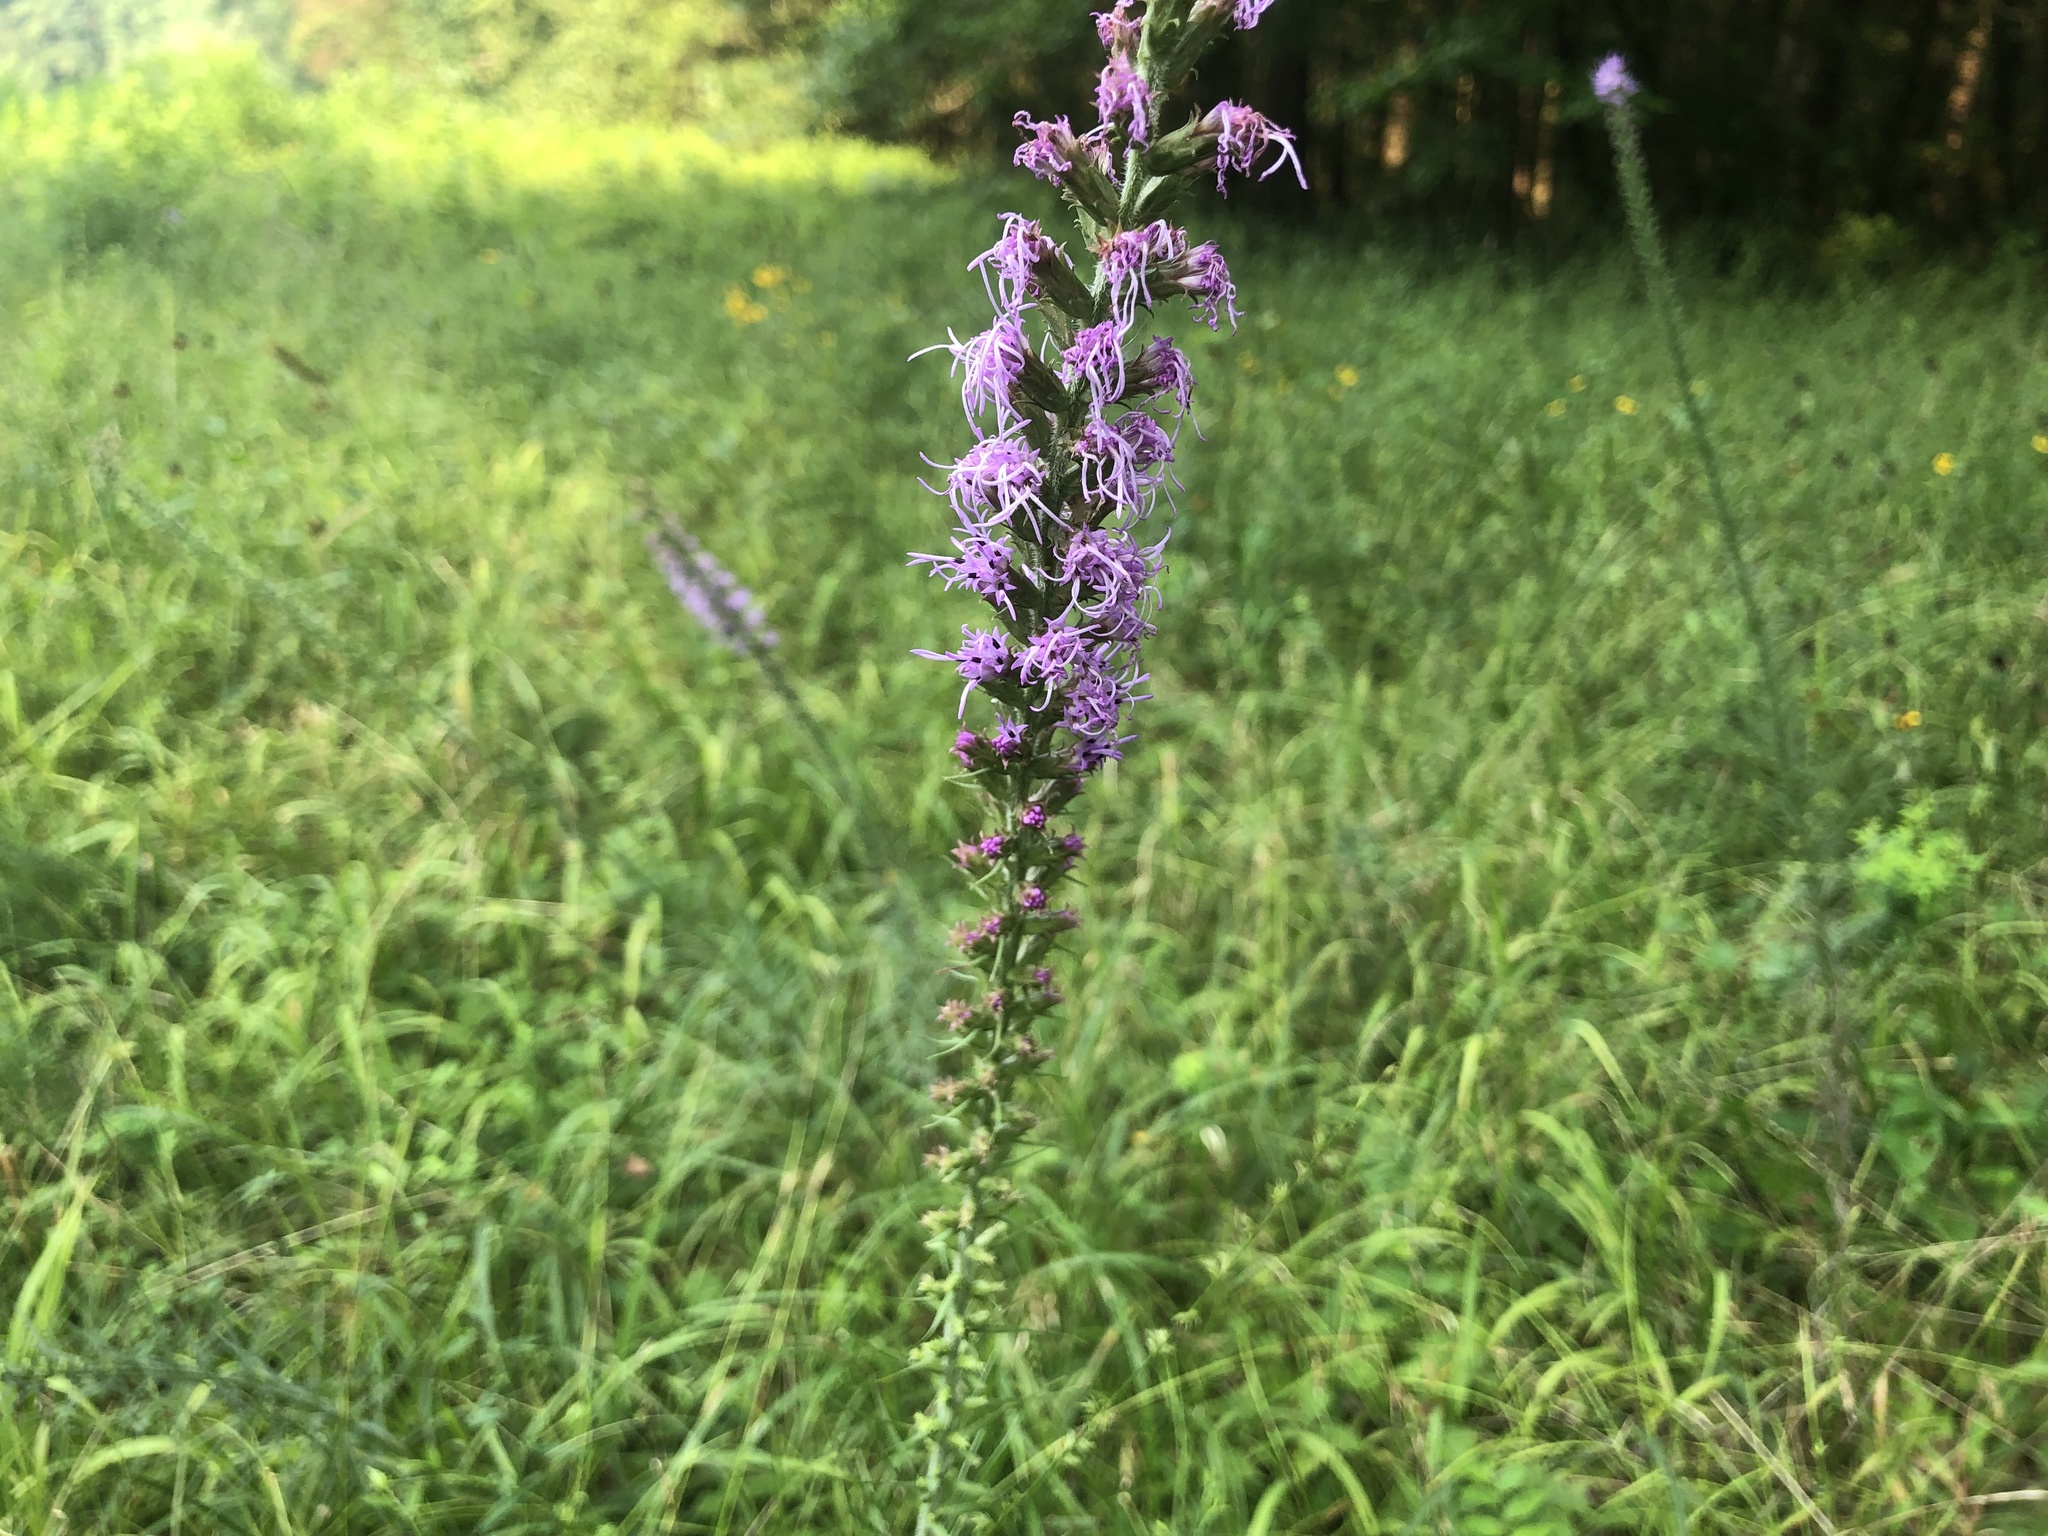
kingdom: Plantae
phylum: Tracheophyta
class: Magnoliopsida
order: Asterales
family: Asteraceae
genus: Liatris
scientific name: Liatris pycnostachya
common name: Cattail gayfeather
